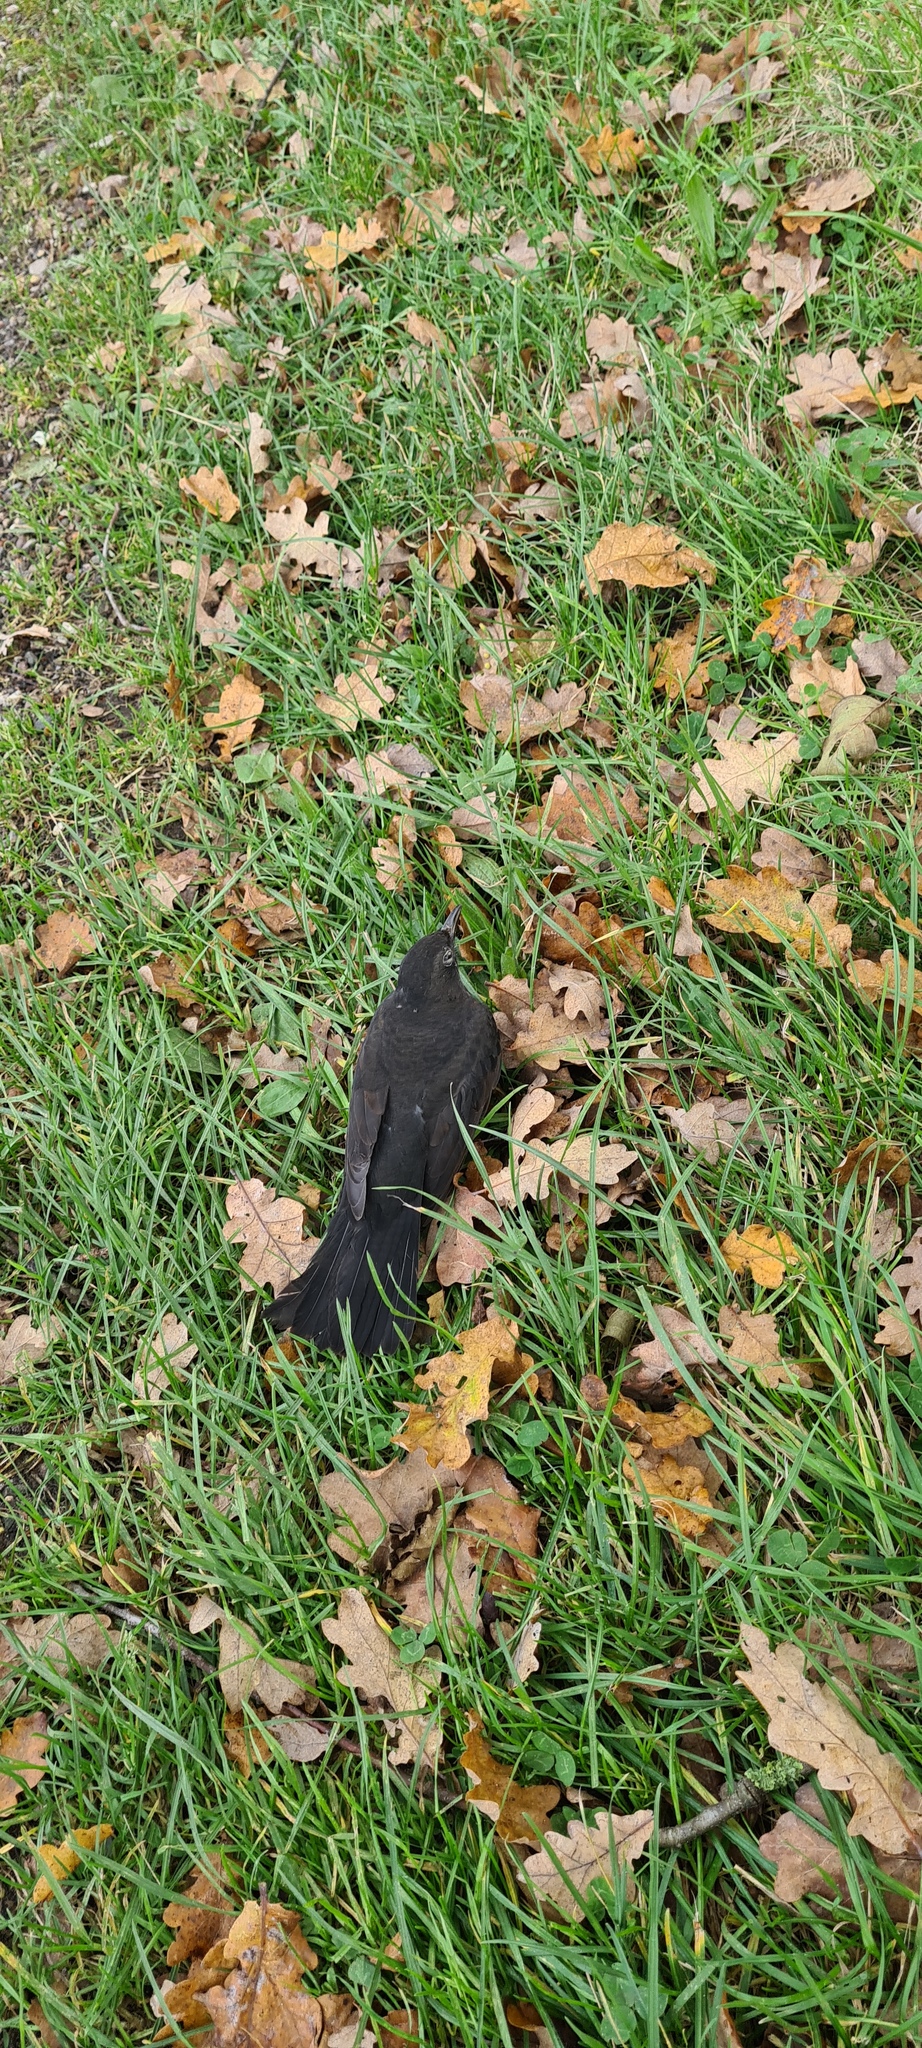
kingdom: Animalia
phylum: Chordata
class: Aves
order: Passeriformes
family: Turdidae
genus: Turdus
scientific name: Turdus merula
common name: Common blackbird
